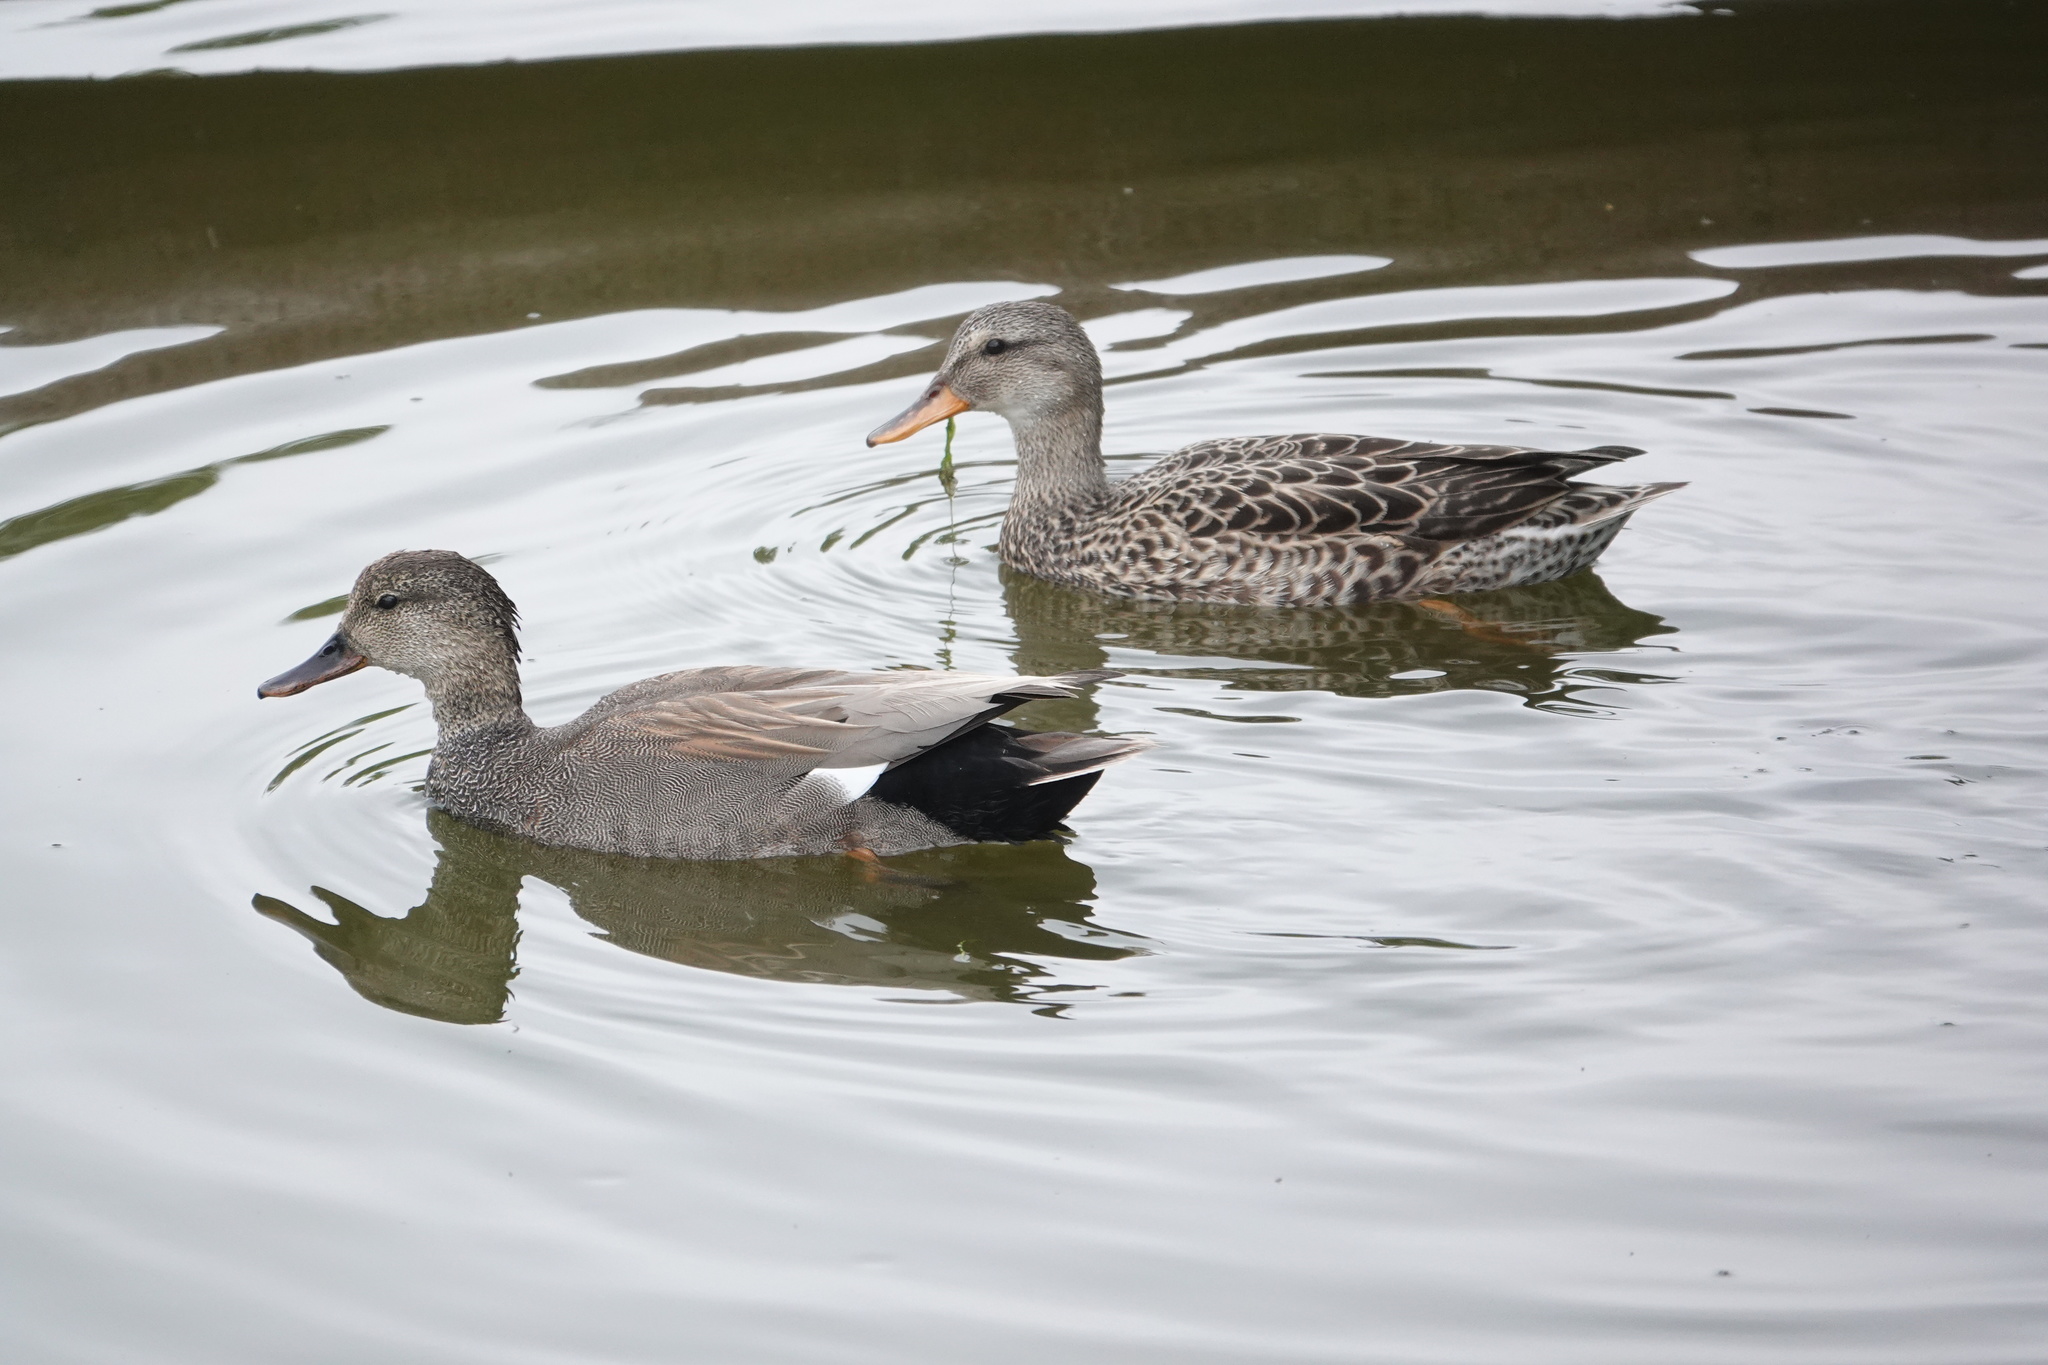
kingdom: Animalia
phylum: Chordata
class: Aves
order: Anseriformes
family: Anatidae
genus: Mareca
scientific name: Mareca strepera
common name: Gadwall
